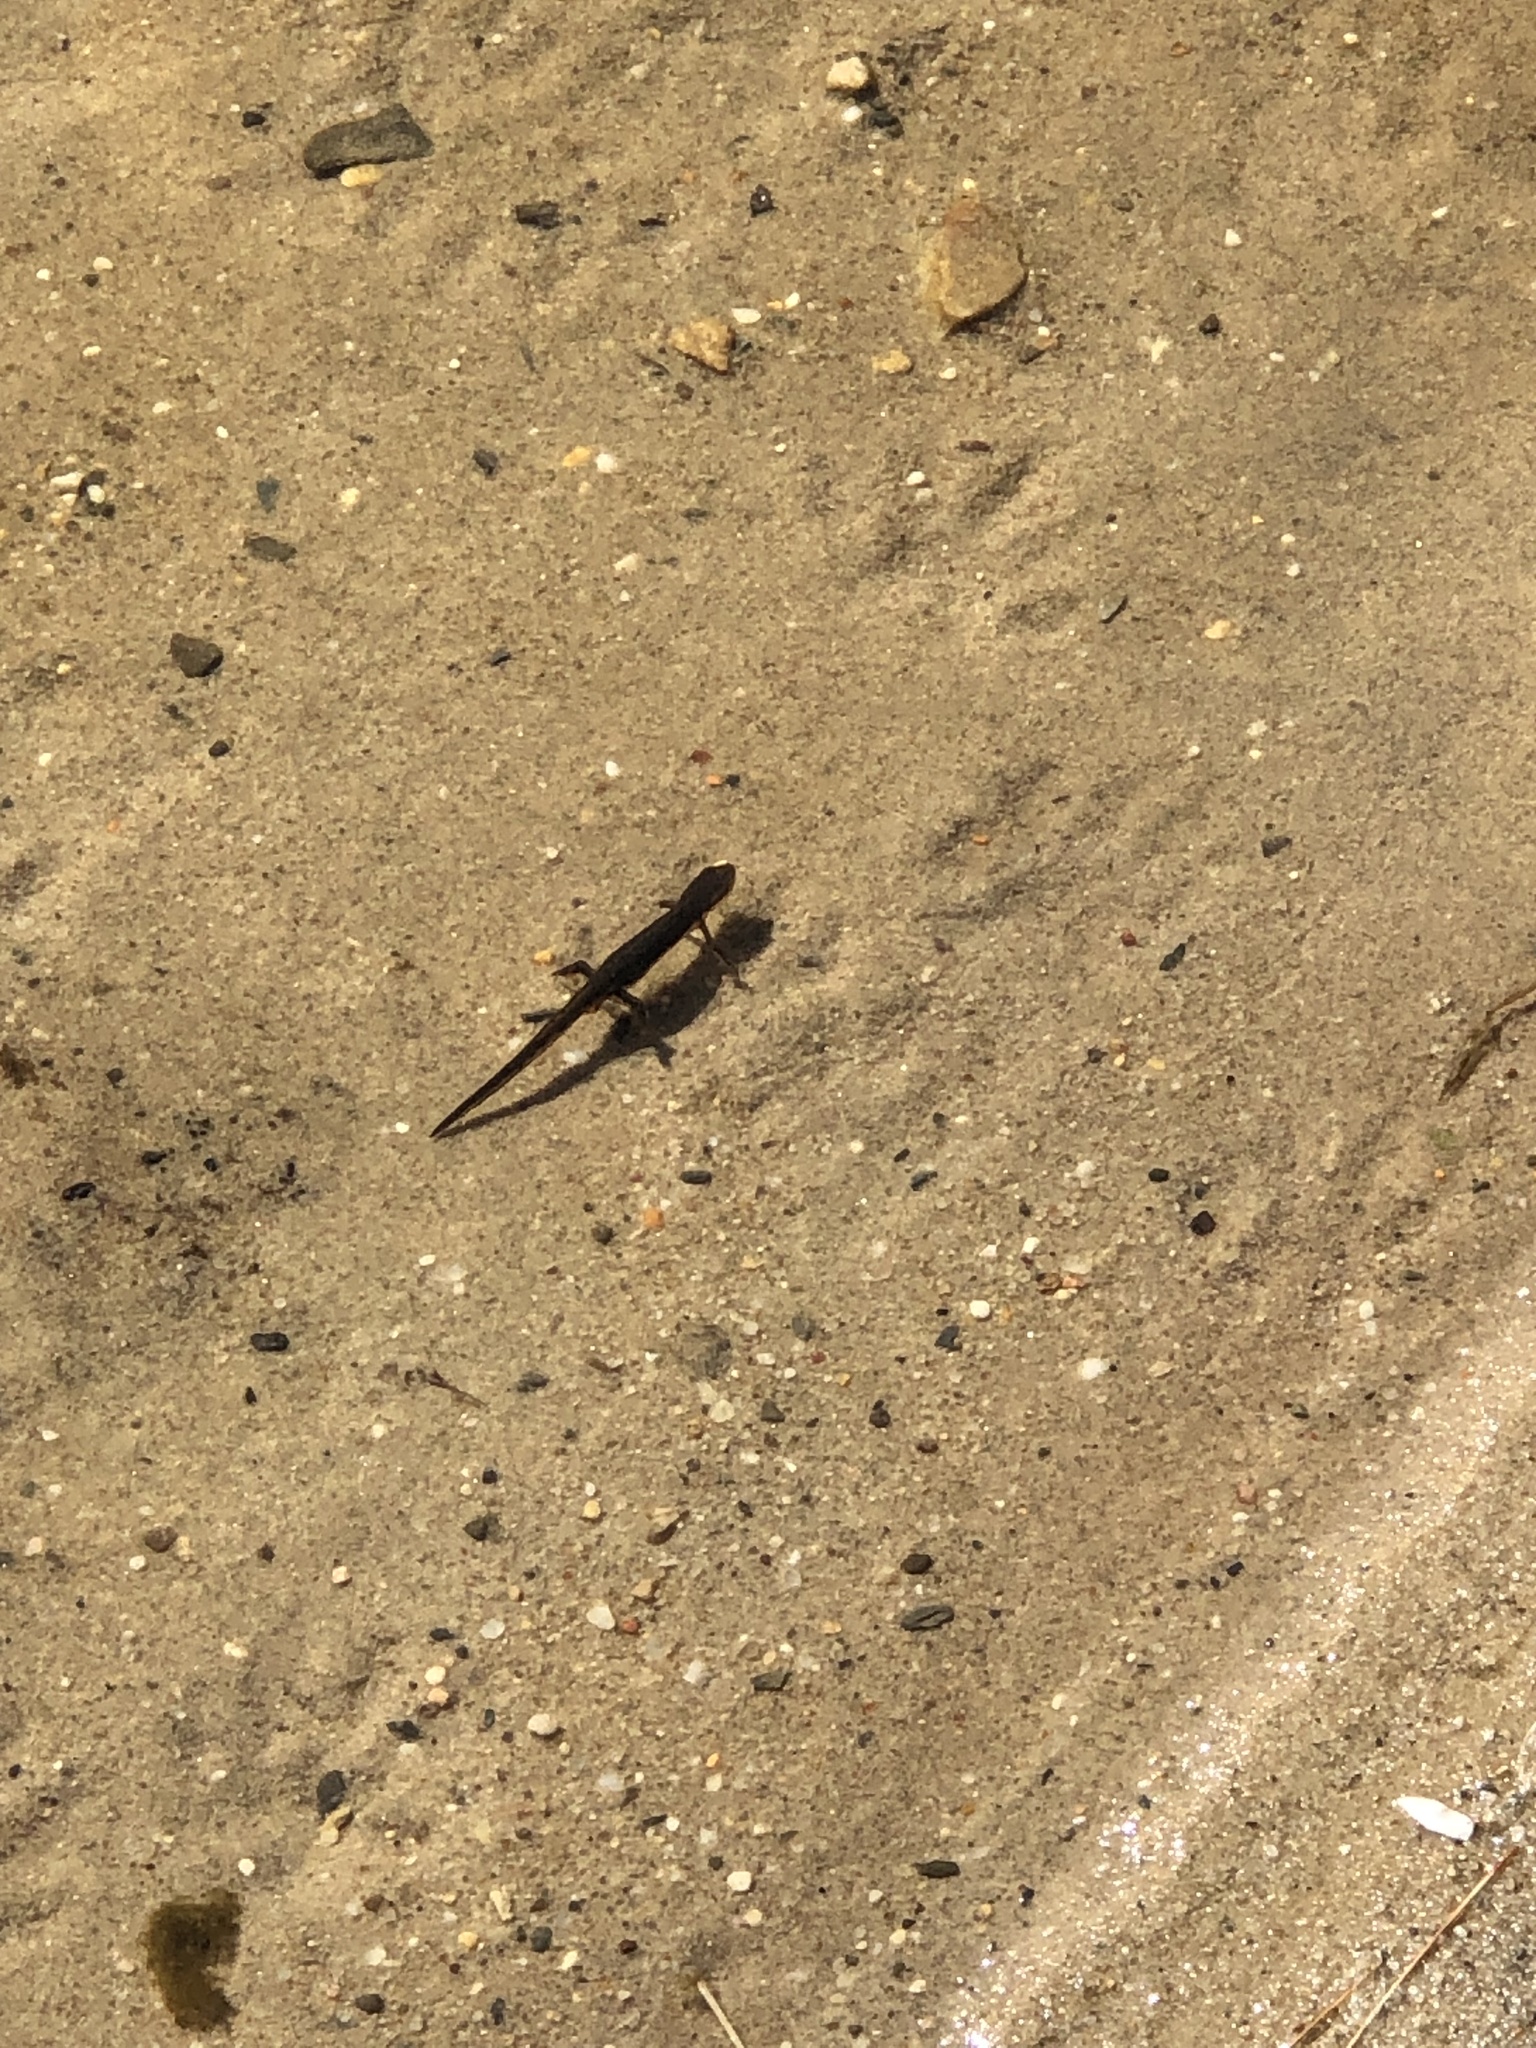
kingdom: Animalia
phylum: Chordata
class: Amphibia
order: Caudata
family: Salamandridae
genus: Notophthalmus
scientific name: Notophthalmus viridescens
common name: Eastern newt
